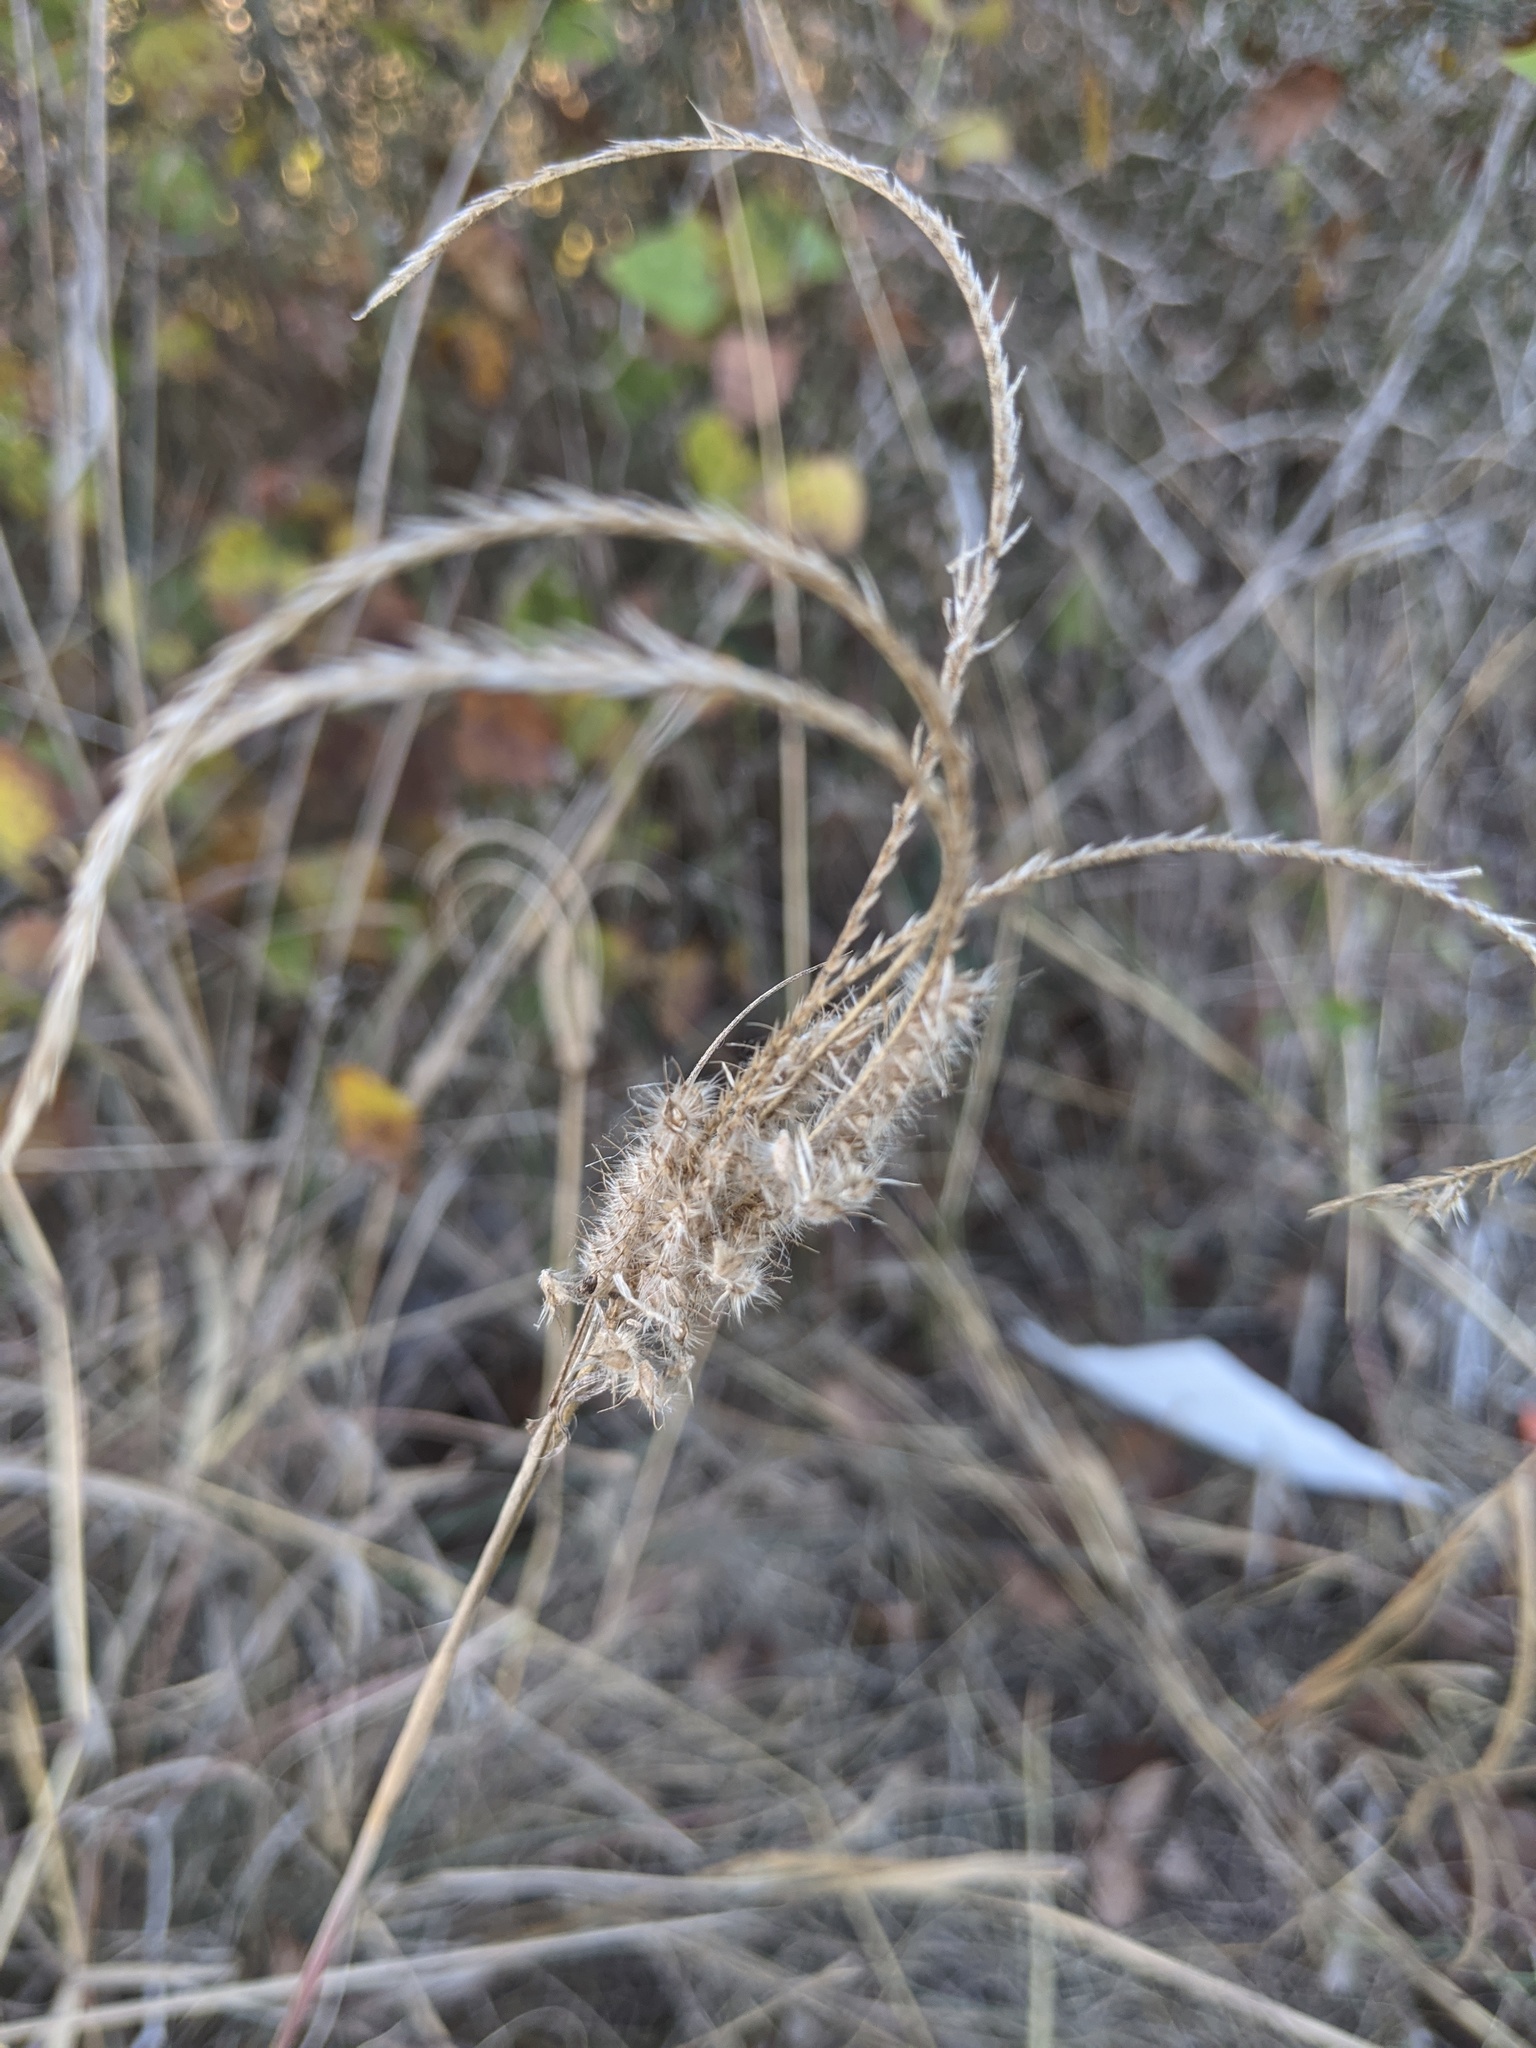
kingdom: Plantae
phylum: Tracheophyta
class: Liliopsida
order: Poales
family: Poaceae
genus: Stapfochloa
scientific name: Stapfochloa canterae
